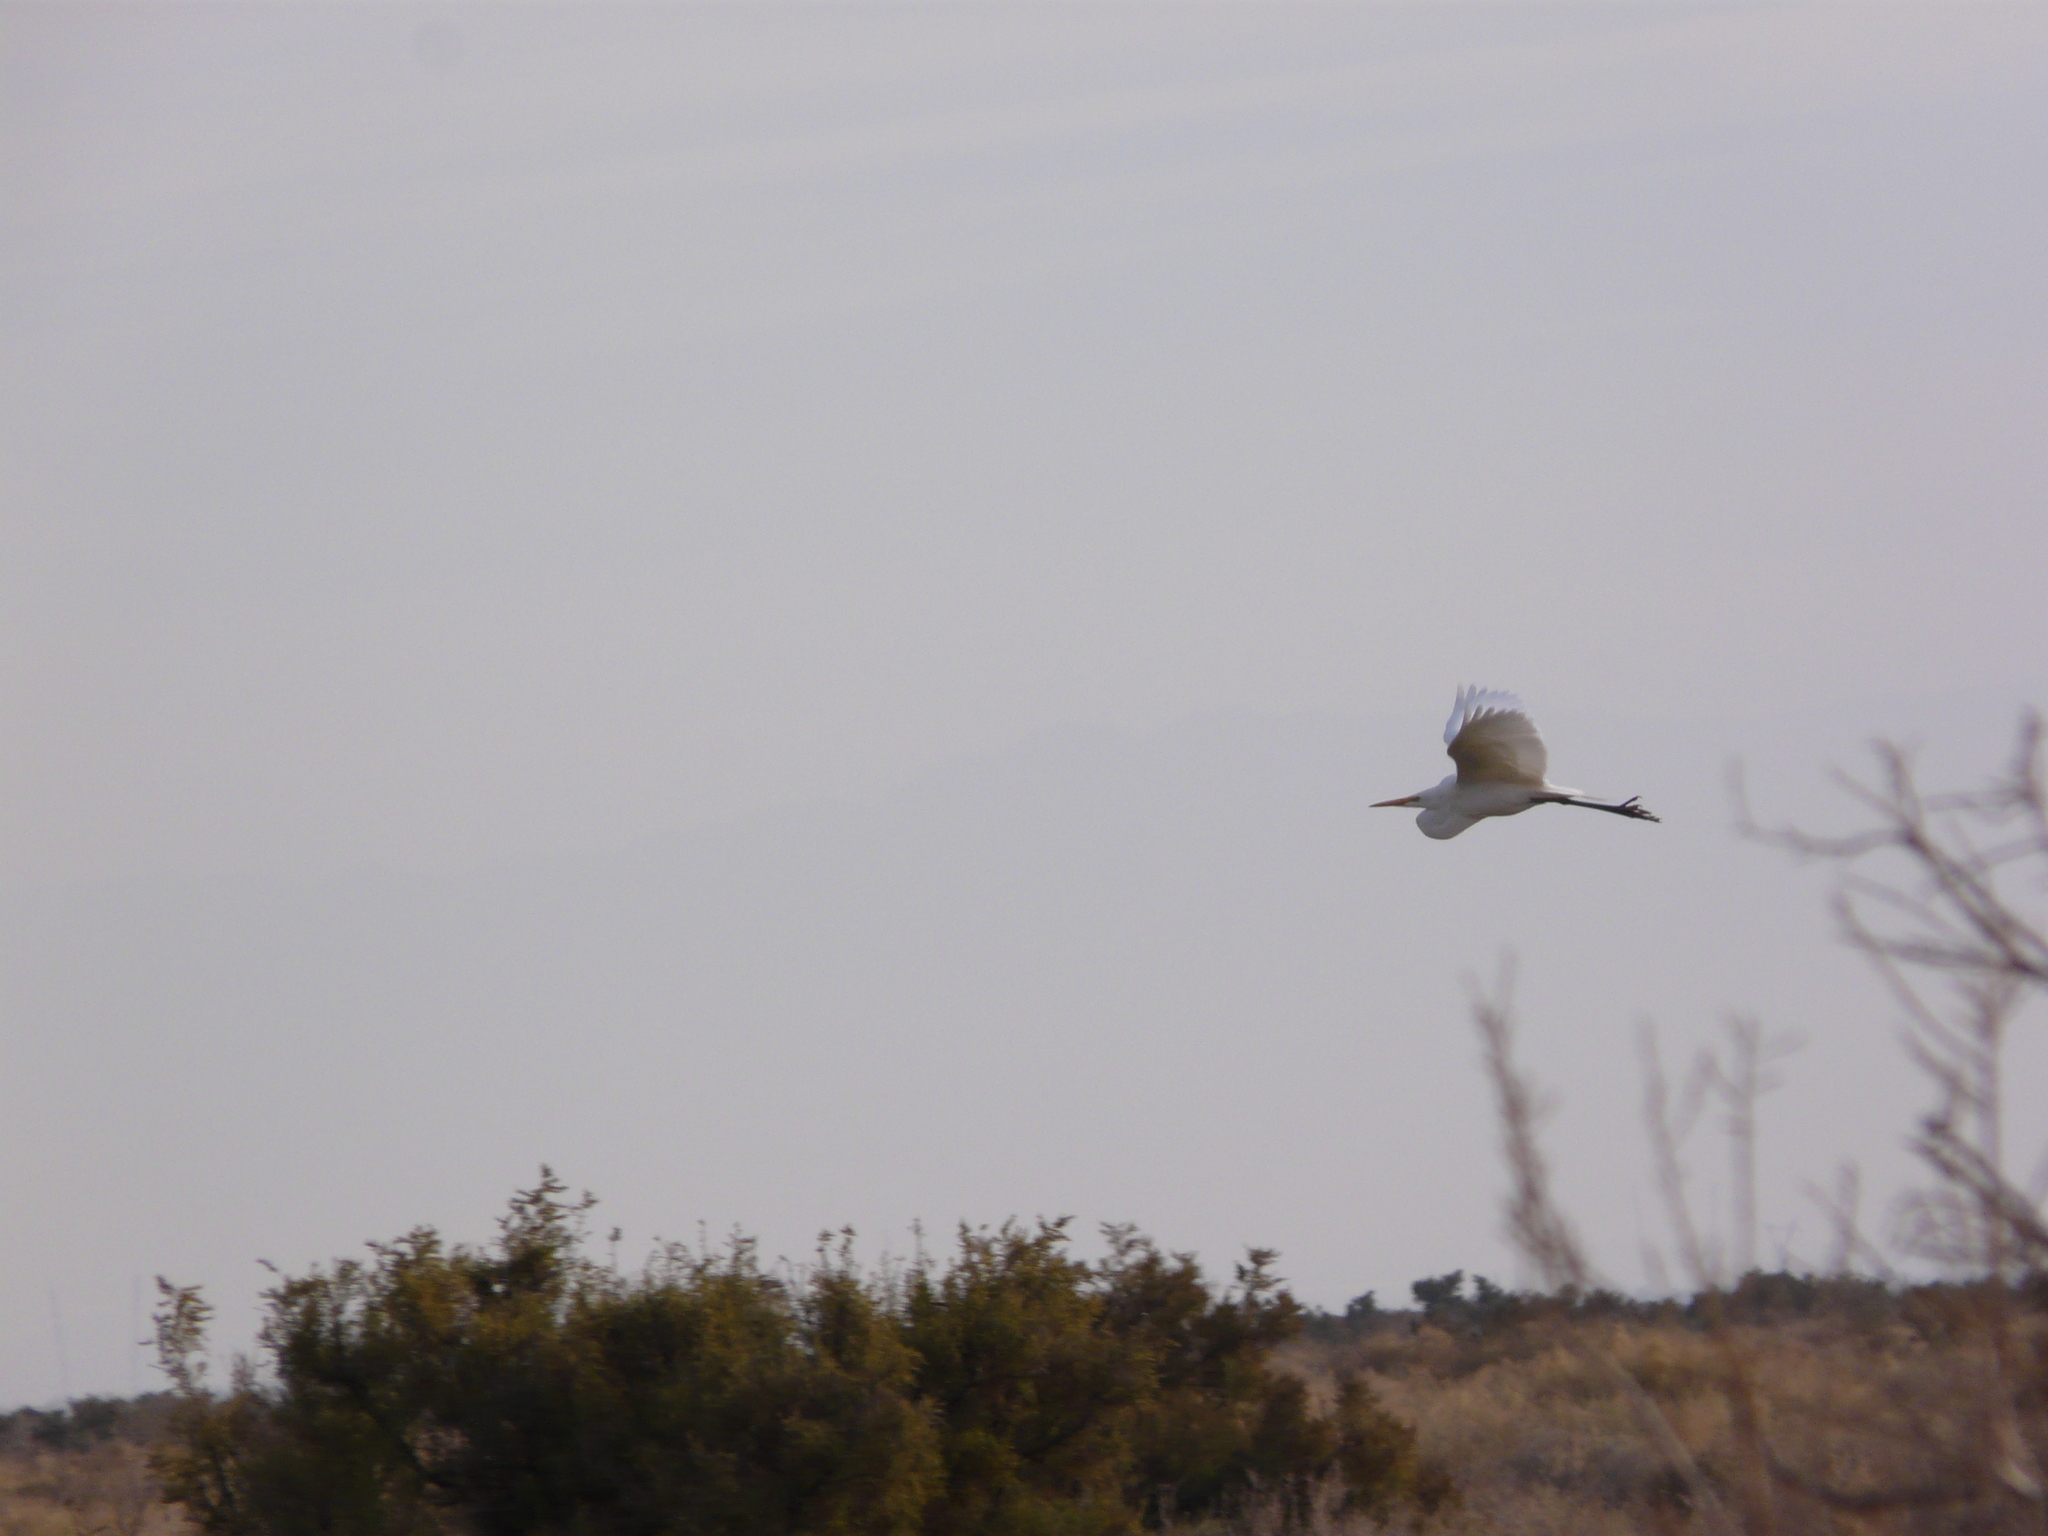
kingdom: Animalia
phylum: Chordata
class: Aves
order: Pelecaniformes
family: Ardeidae
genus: Ardea
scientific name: Ardea alba
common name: Great egret
